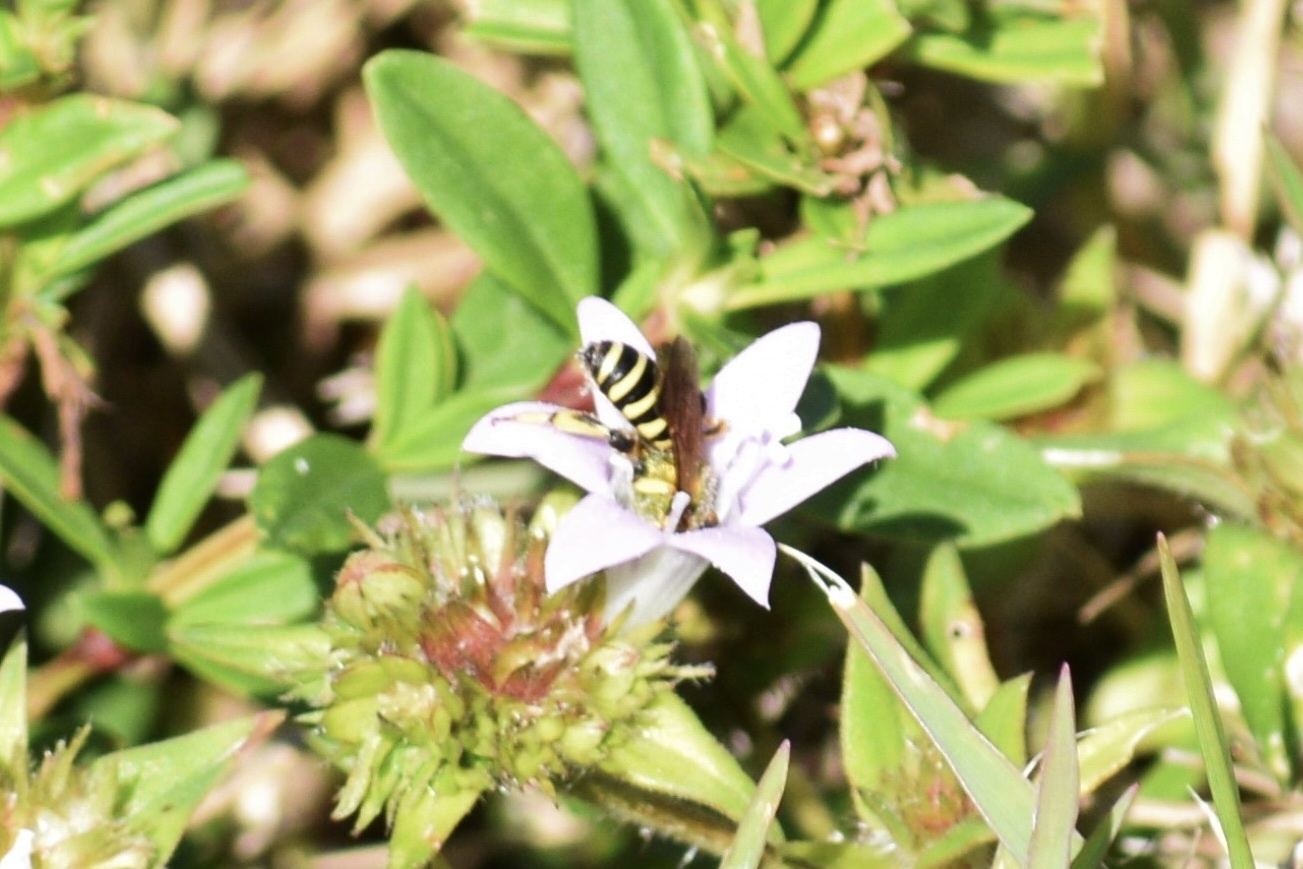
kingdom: Animalia
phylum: Arthropoda
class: Insecta
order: Hymenoptera
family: Halictidae
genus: Agapostemon
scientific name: Agapostemon splendens
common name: Brown-winged striped sweat bee
